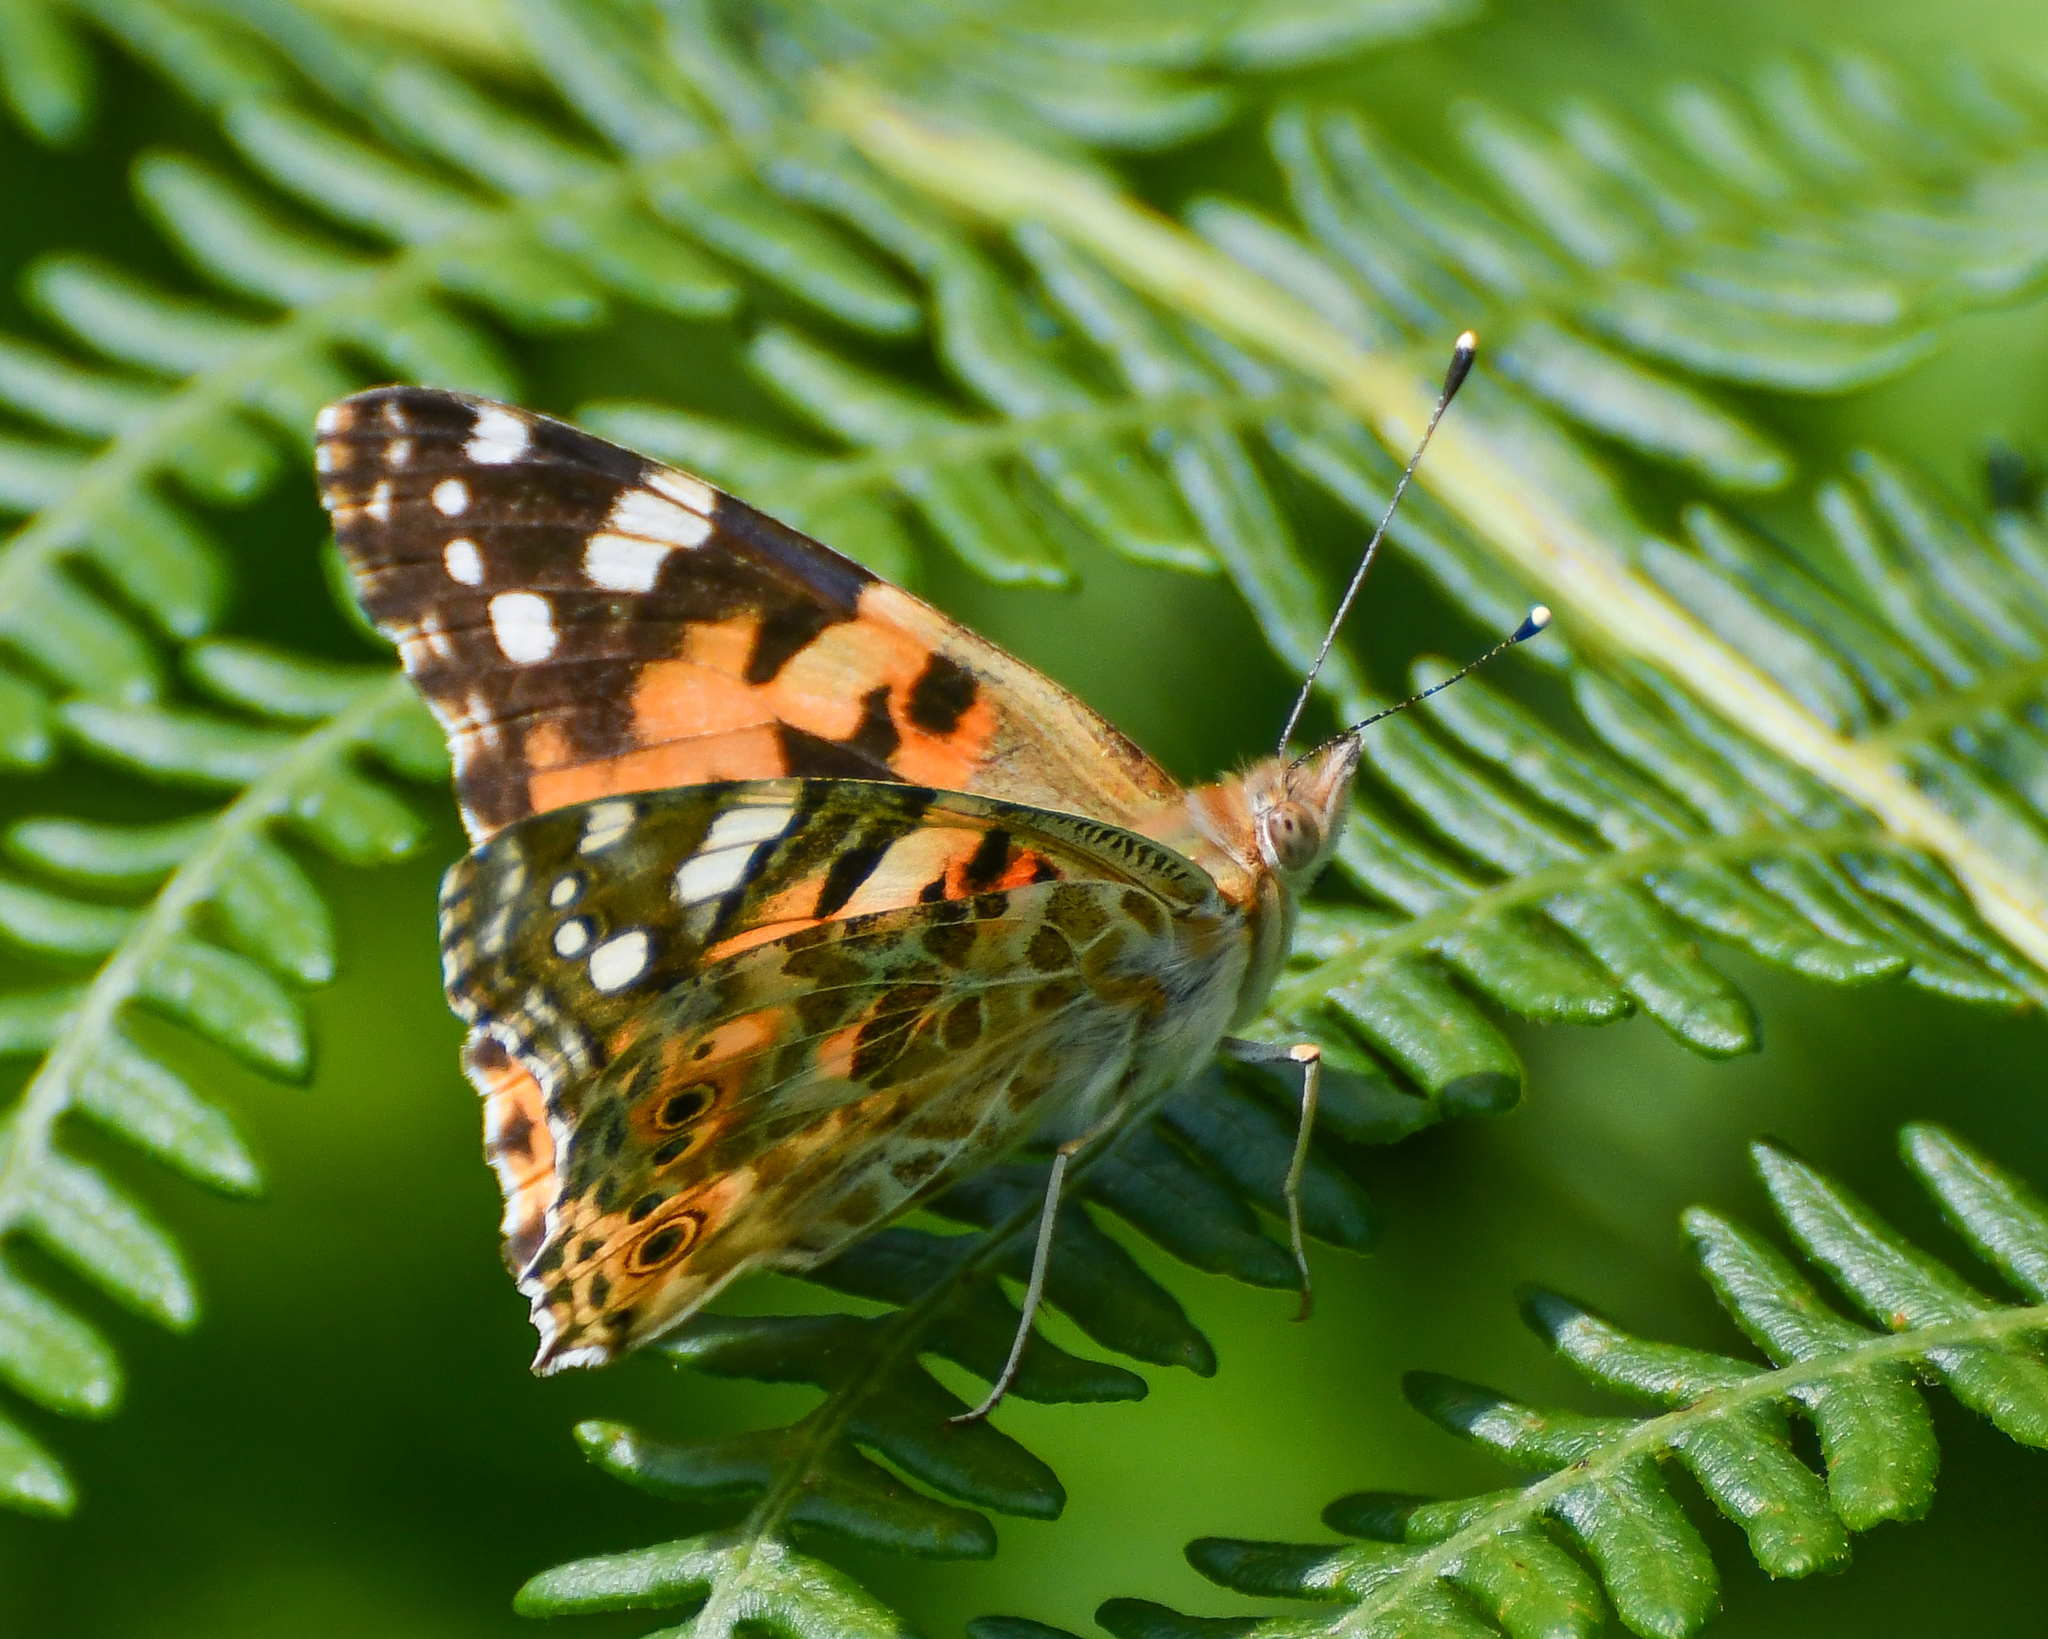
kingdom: Animalia
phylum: Arthropoda
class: Insecta
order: Lepidoptera
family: Nymphalidae
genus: Vanessa
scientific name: Vanessa cardui
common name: Painted lady
